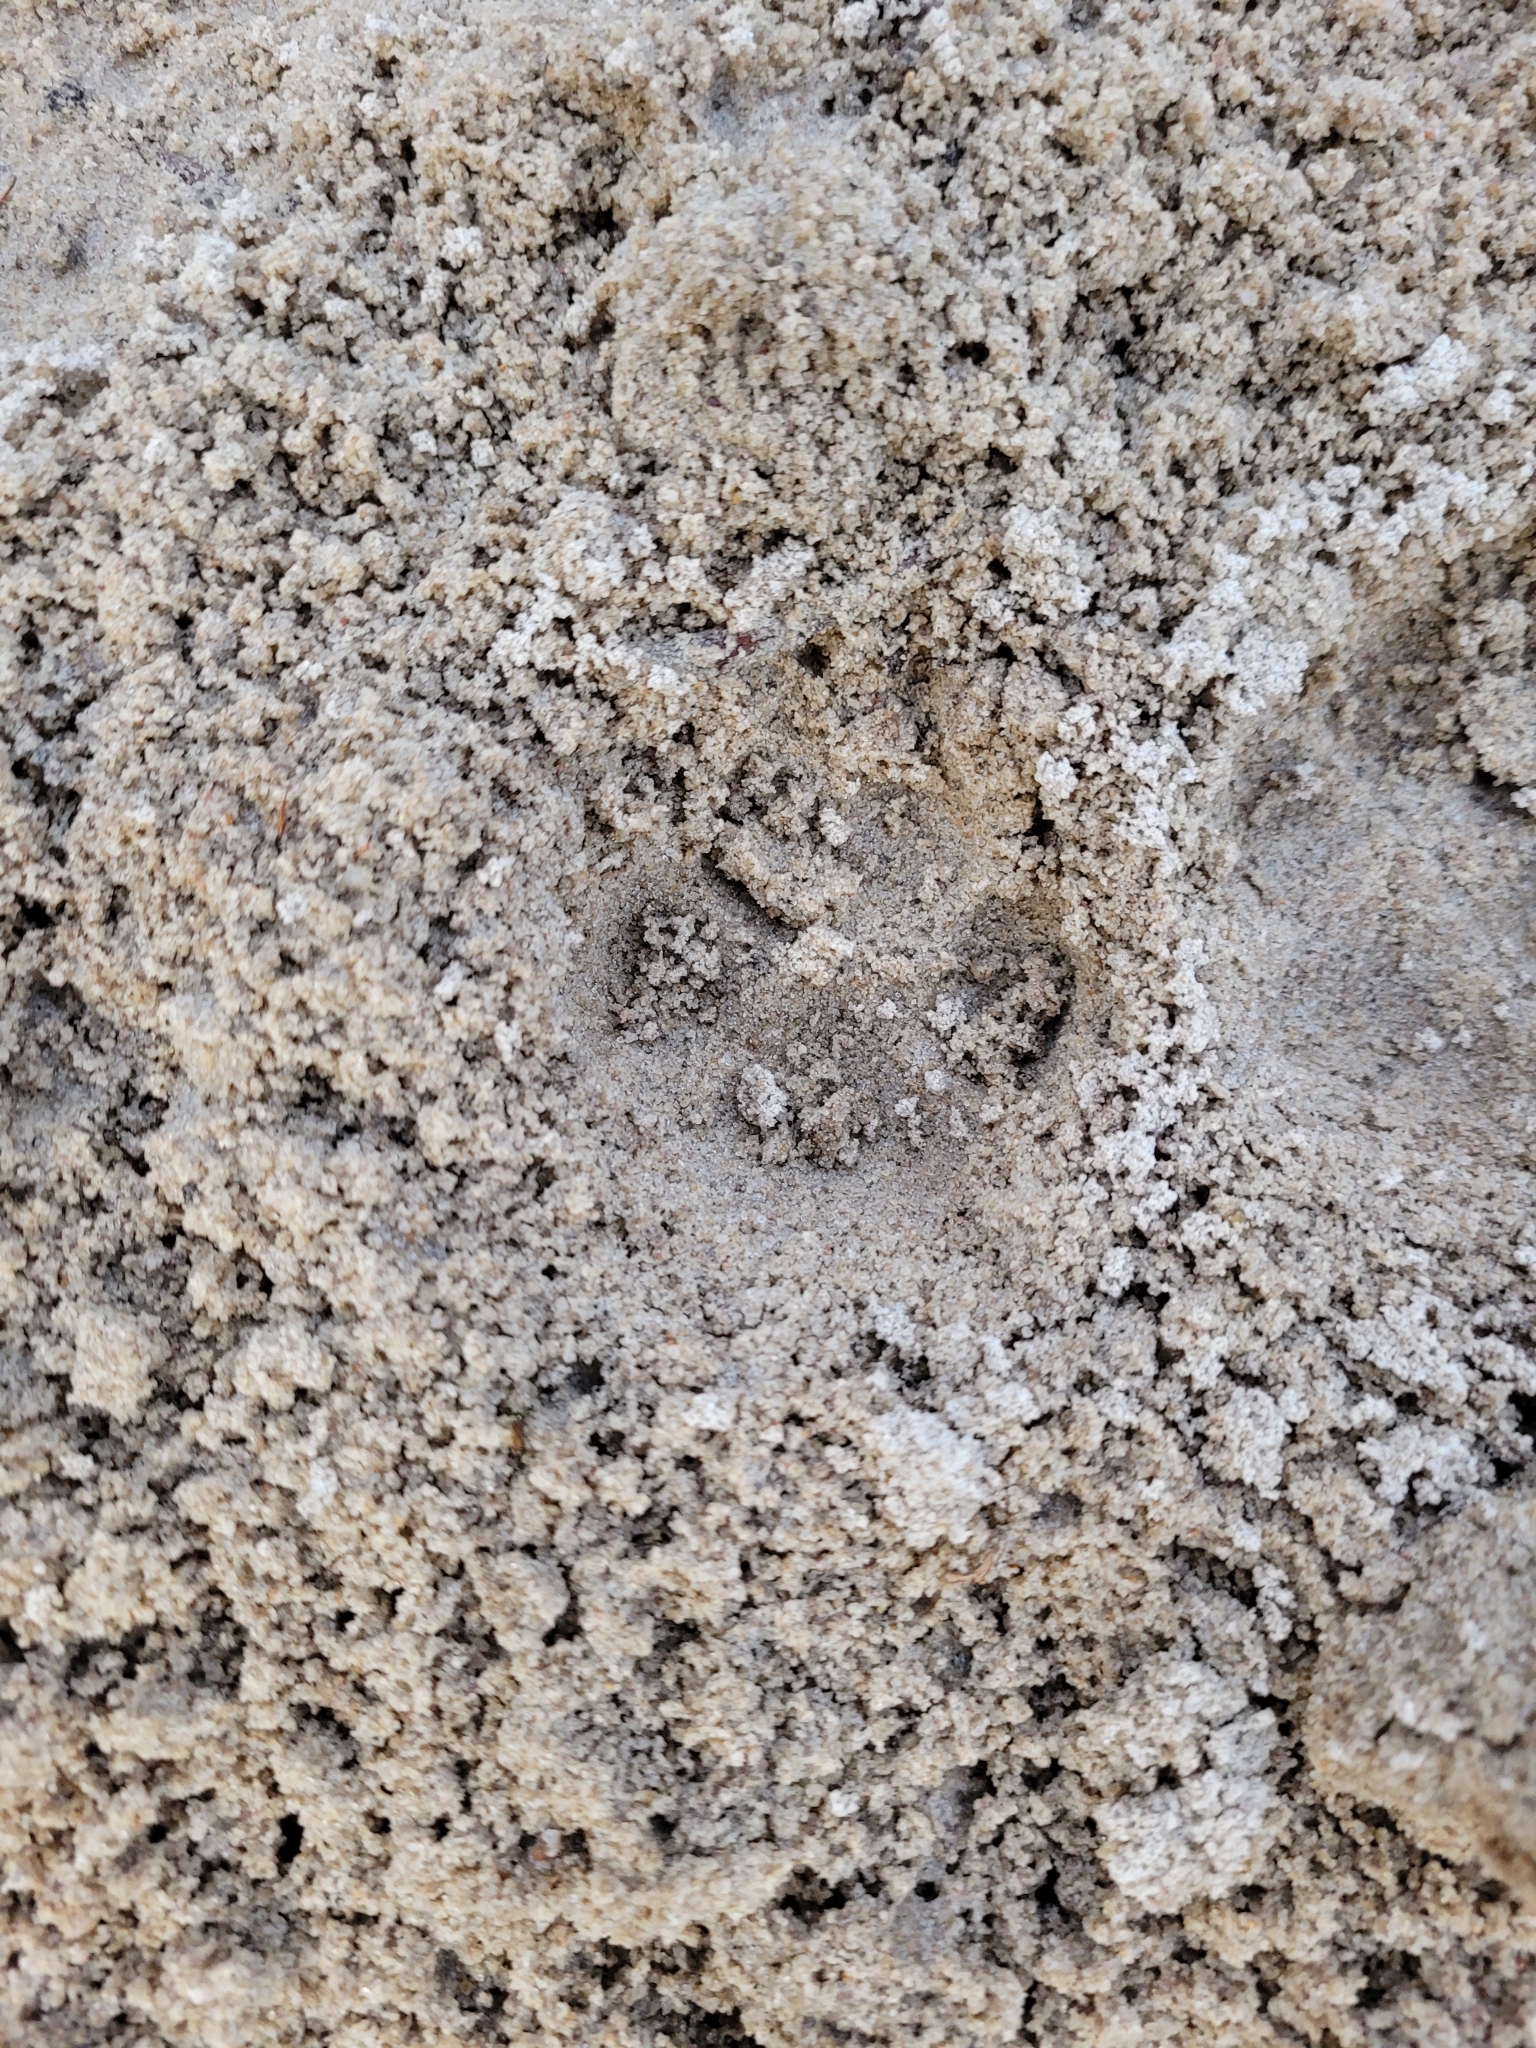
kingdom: Animalia
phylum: Chordata
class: Mammalia
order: Carnivora
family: Canidae
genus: Vulpes
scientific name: Vulpes vulpes
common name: Red fox
